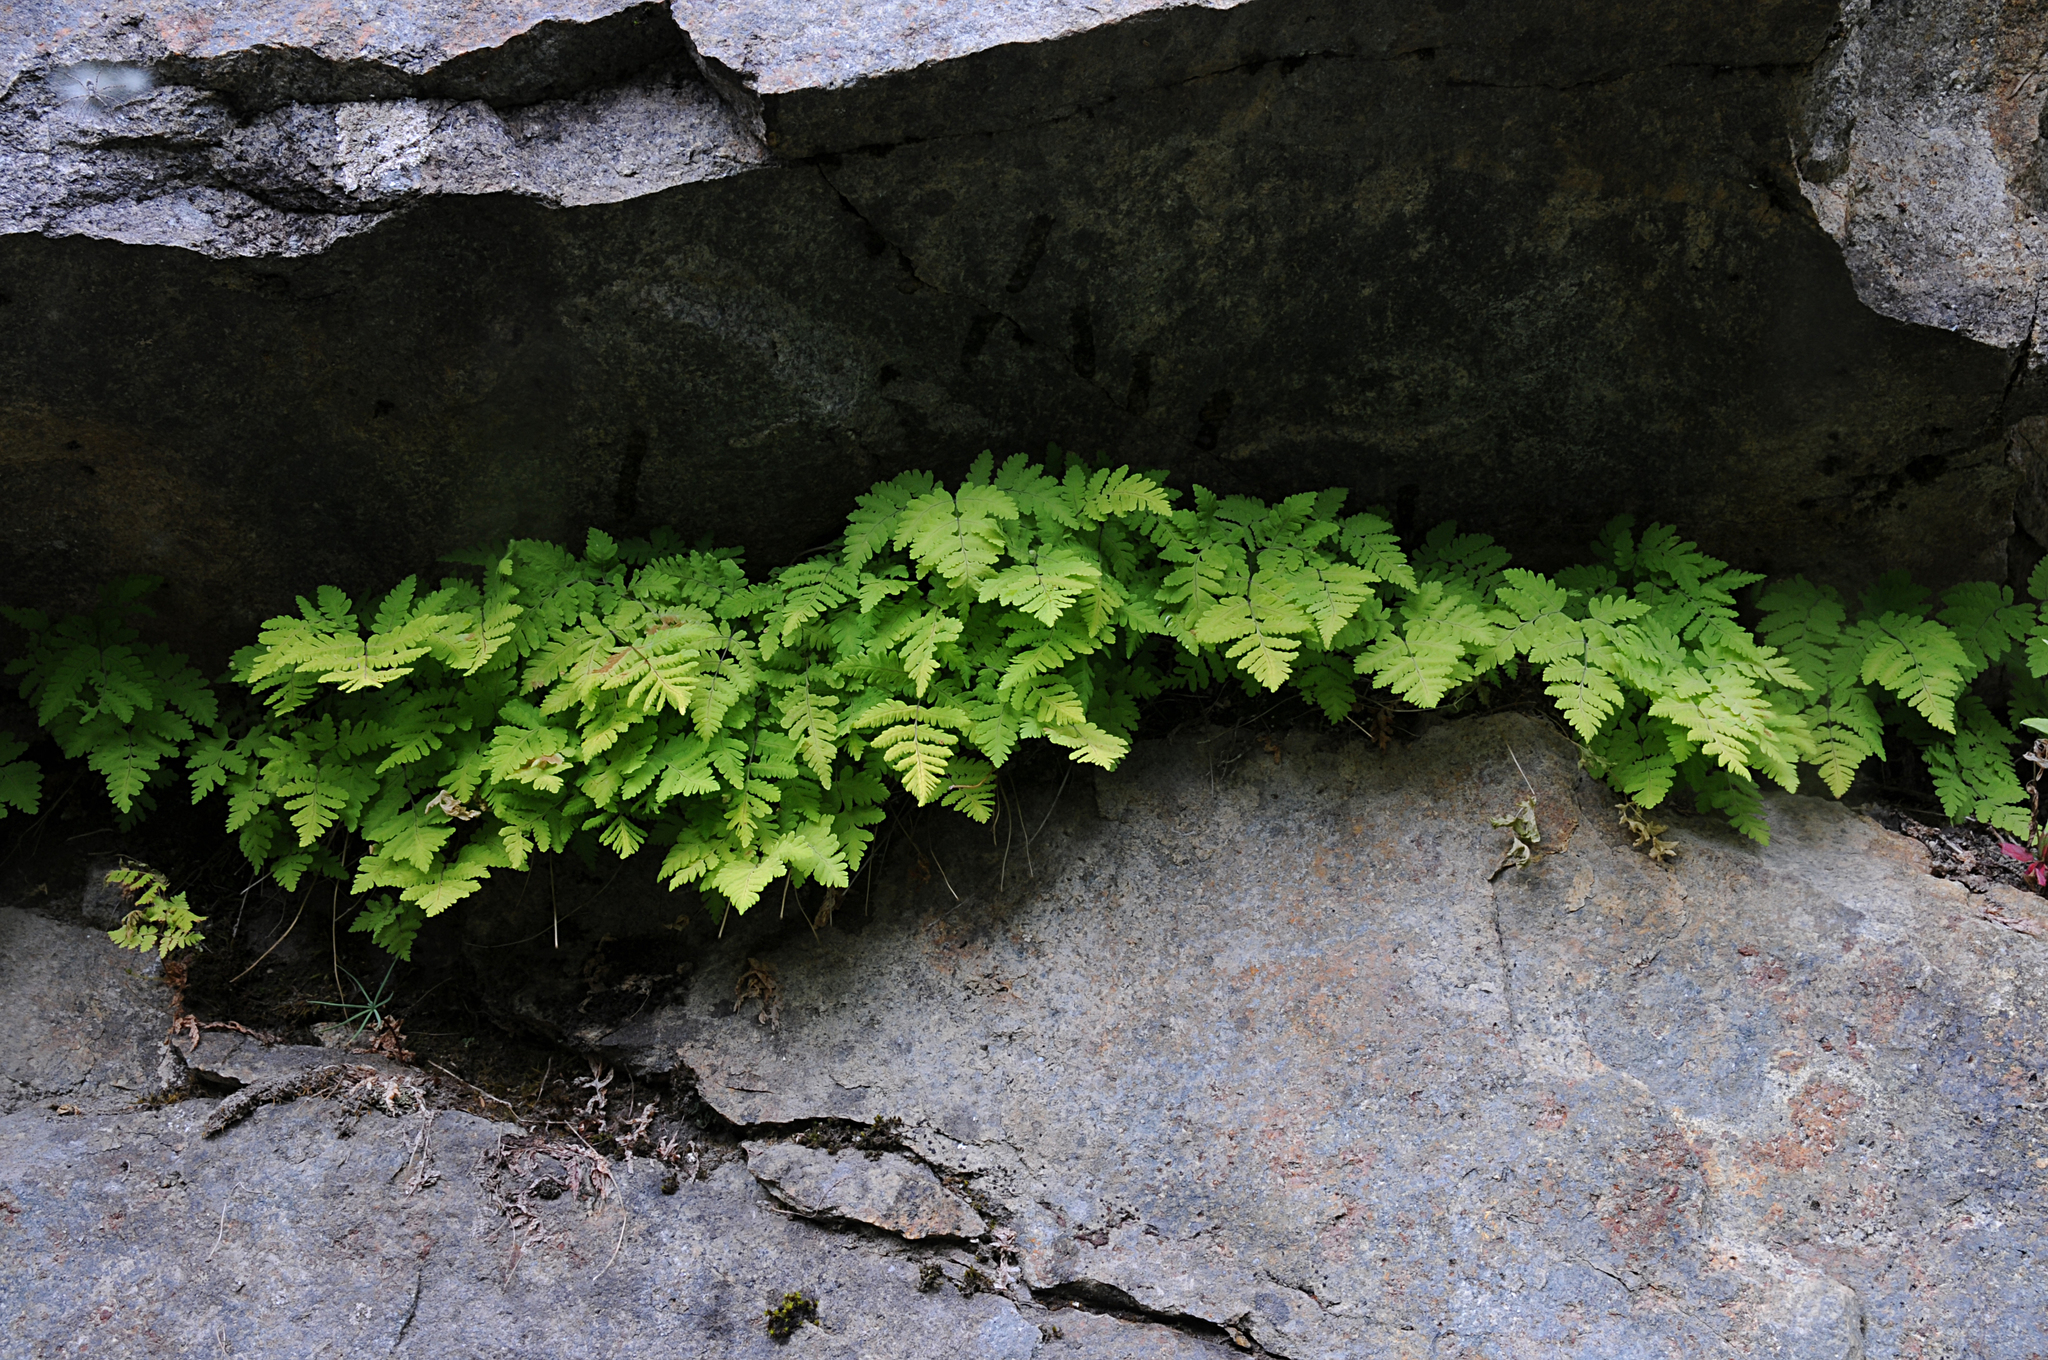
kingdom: Plantae
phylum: Tracheophyta
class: Polypodiopsida
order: Polypodiales
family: Cystopteridaceae
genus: Gymnocarpium
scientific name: Gymnocarpium dryopteris
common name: Oak fern
